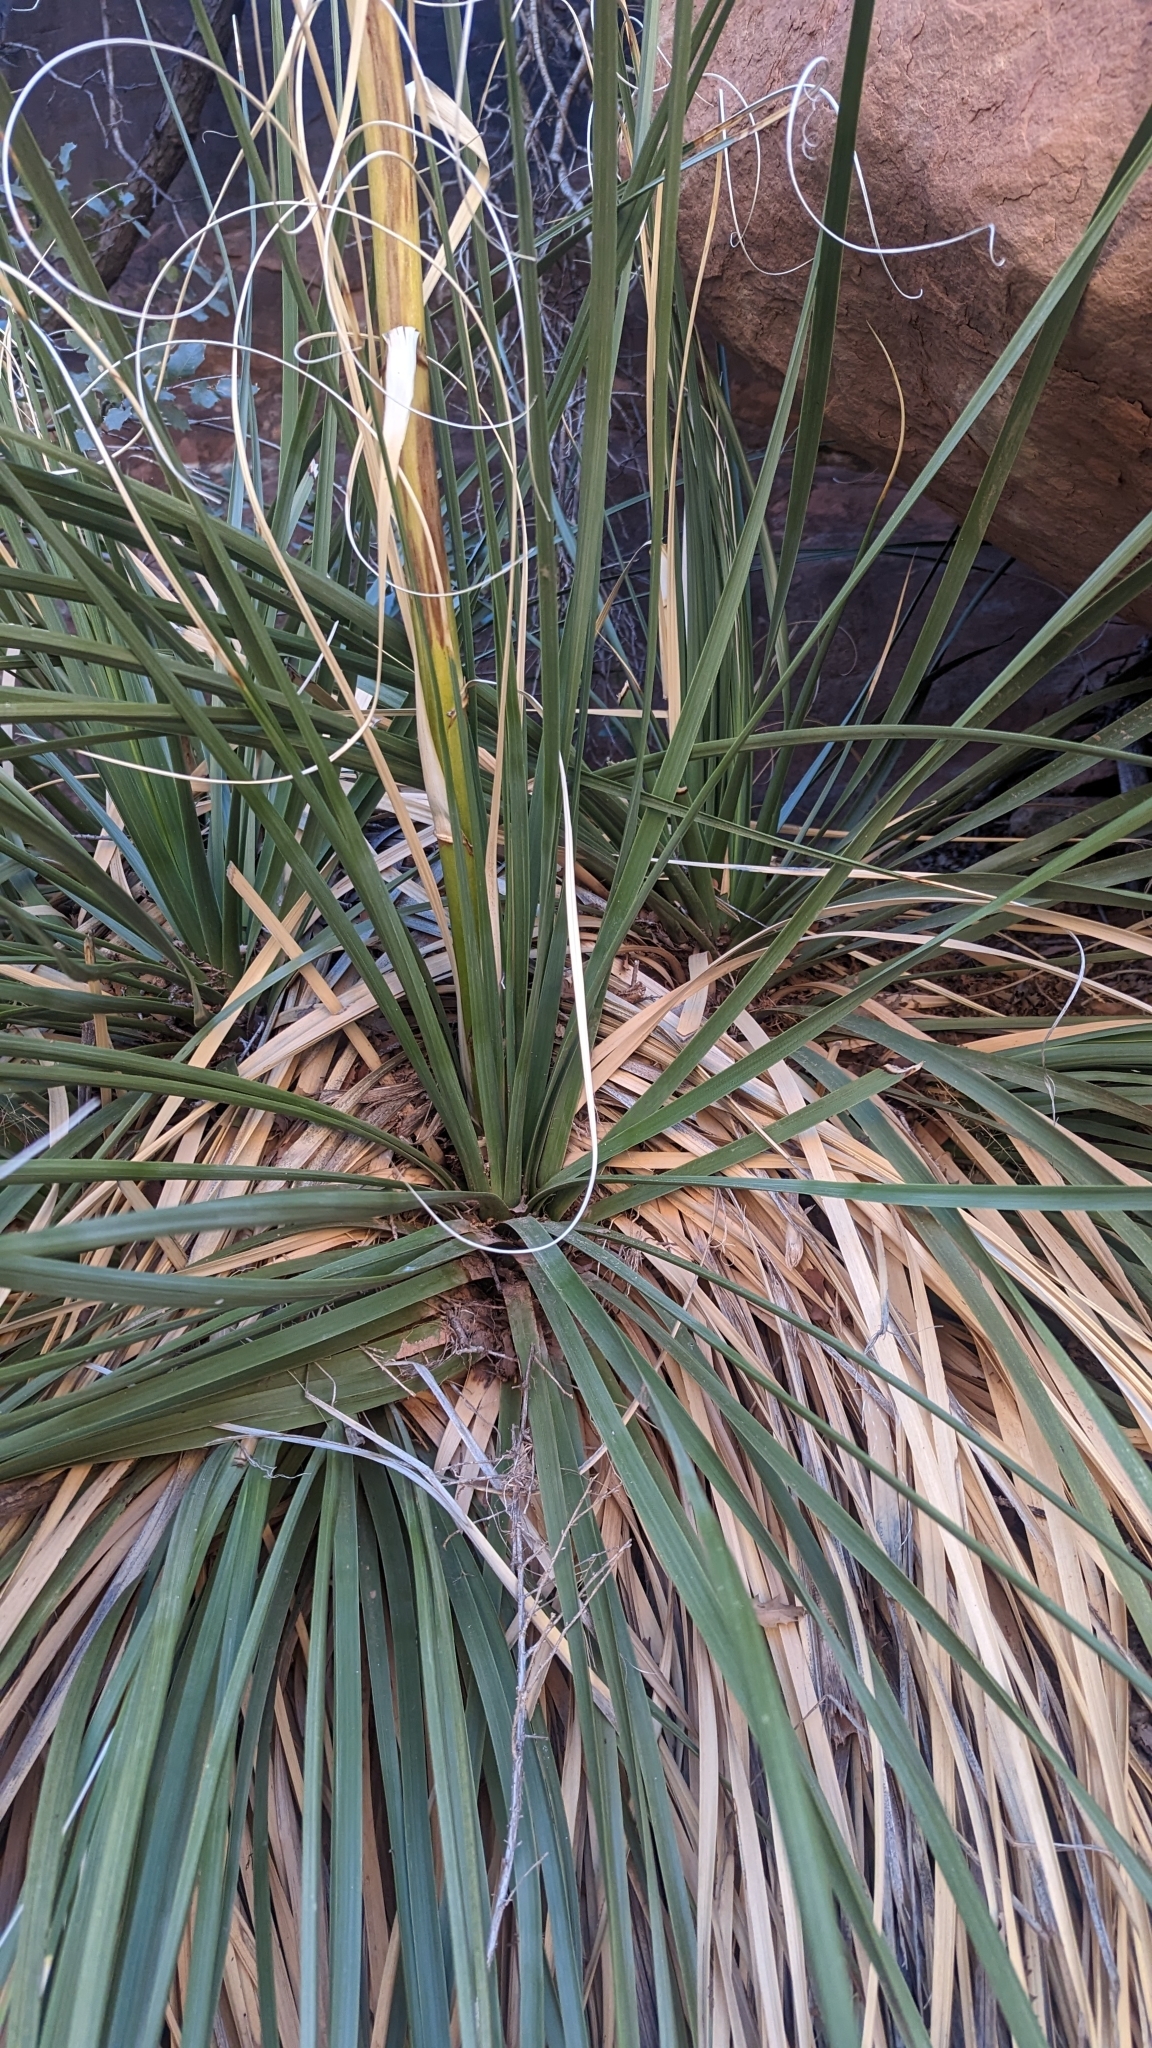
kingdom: Plantae
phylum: Tracheophyta
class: Liliopsida
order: Asparagales
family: Asparagaceae
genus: Nolina
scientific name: Nolina microcarpa
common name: Bear-grass
